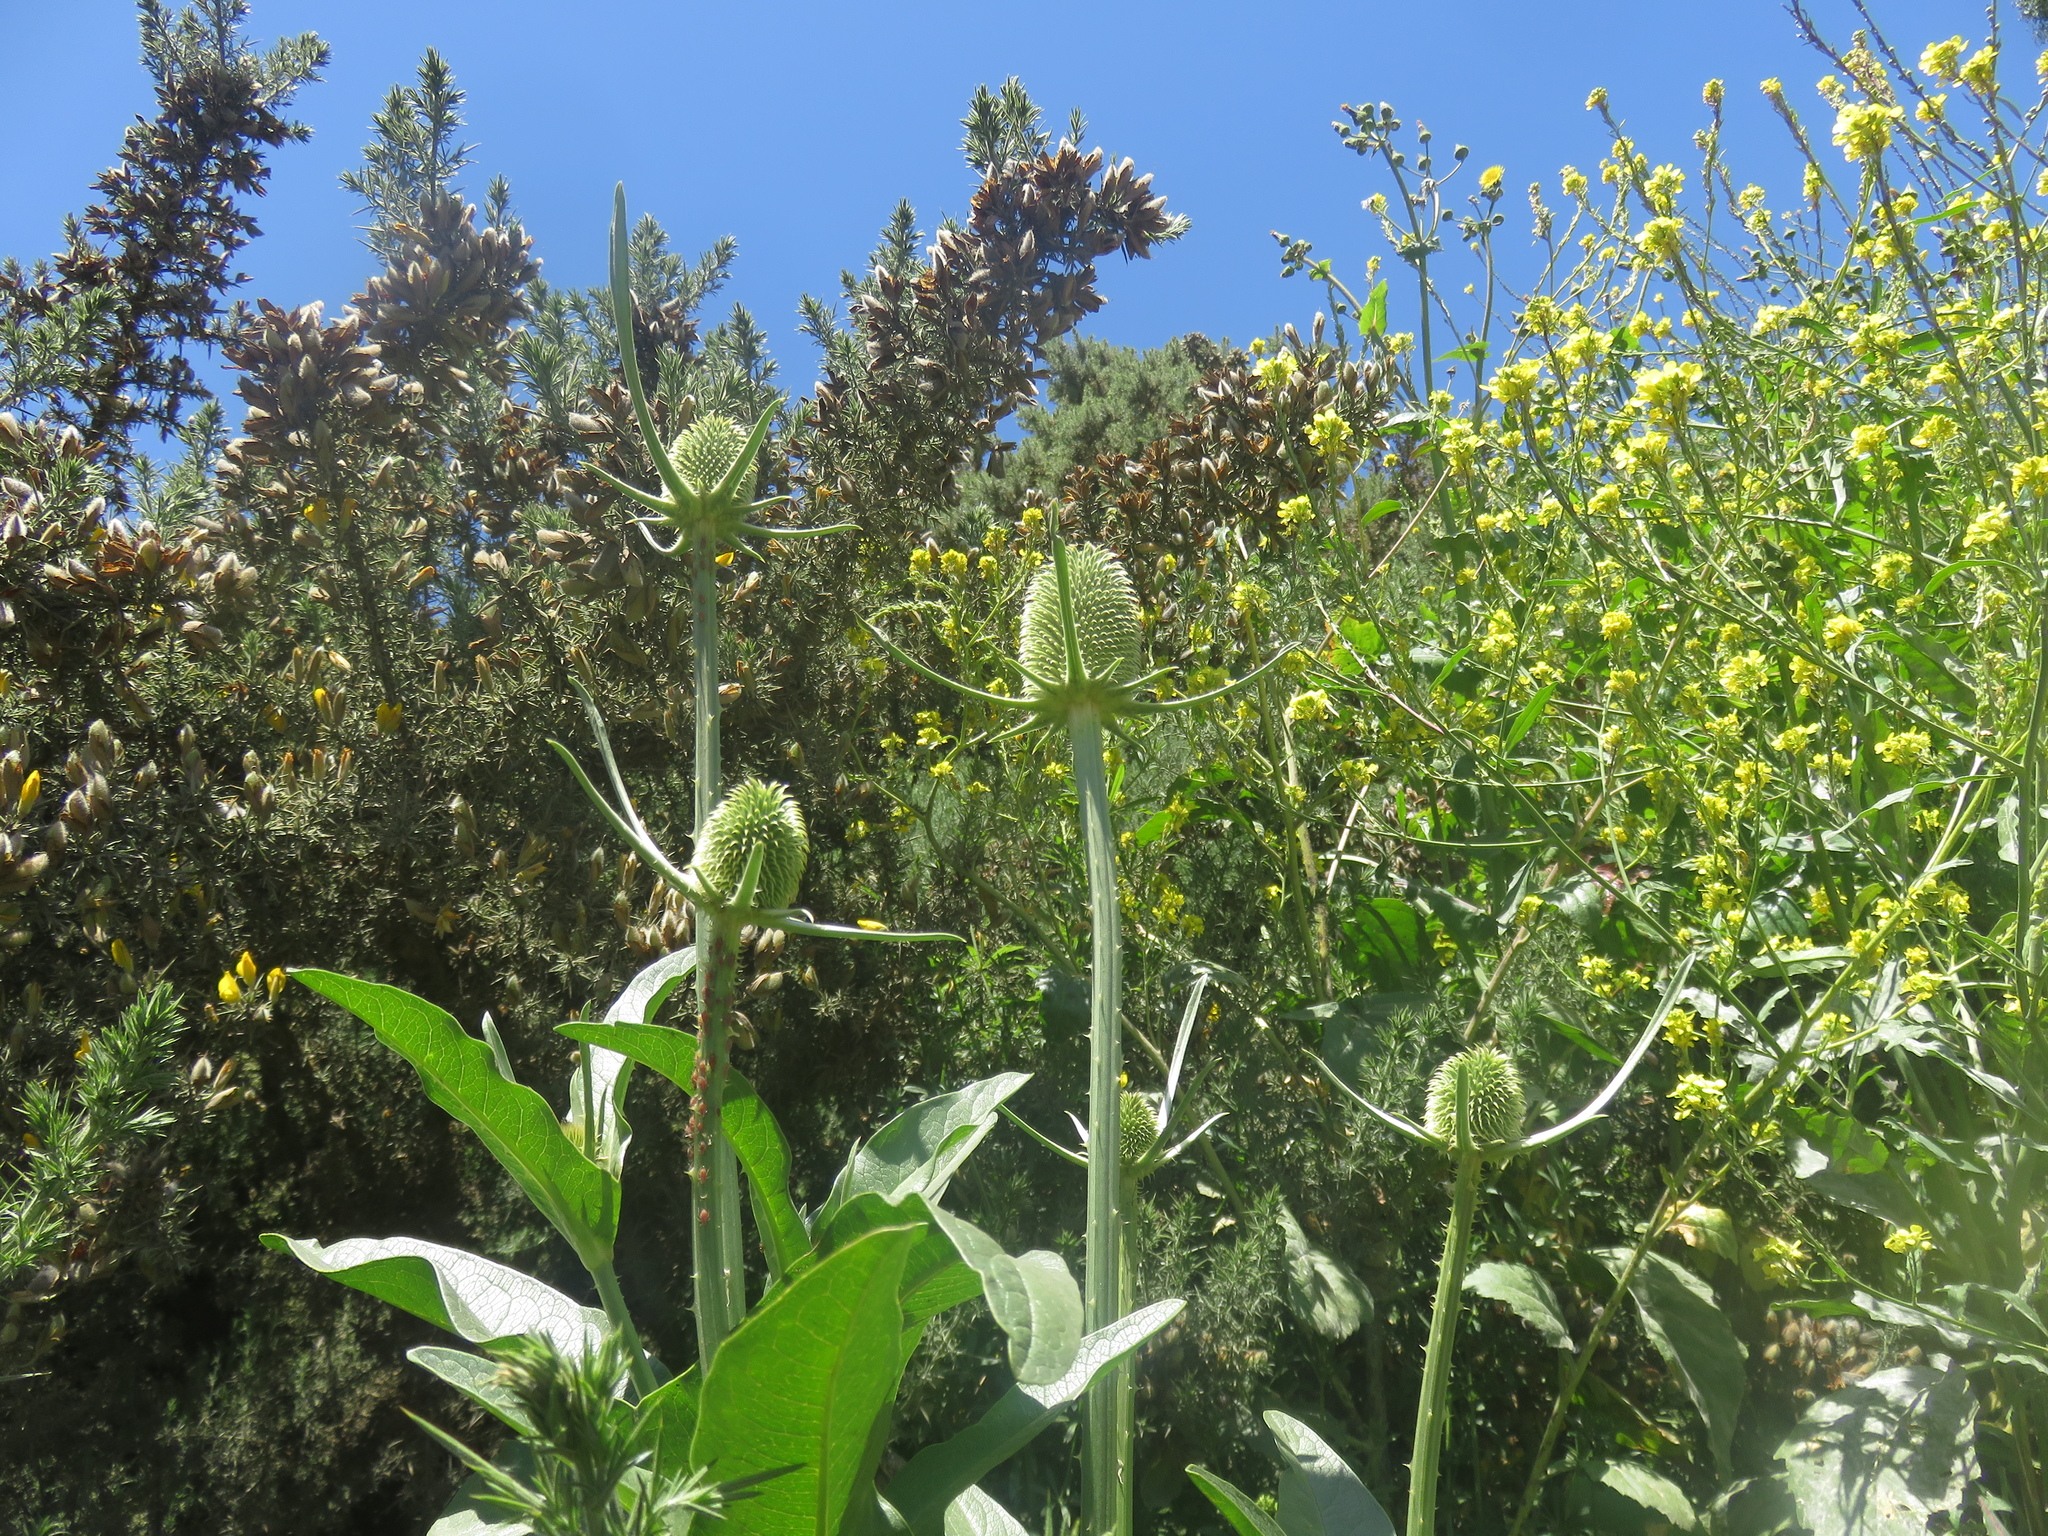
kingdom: Plantae
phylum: Tracheophyta
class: Magnoliopsida
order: Dipsacales
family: Caprifoliaceae
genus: Dipsacus
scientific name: Dipsacus sativus
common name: Fuller's teasel
